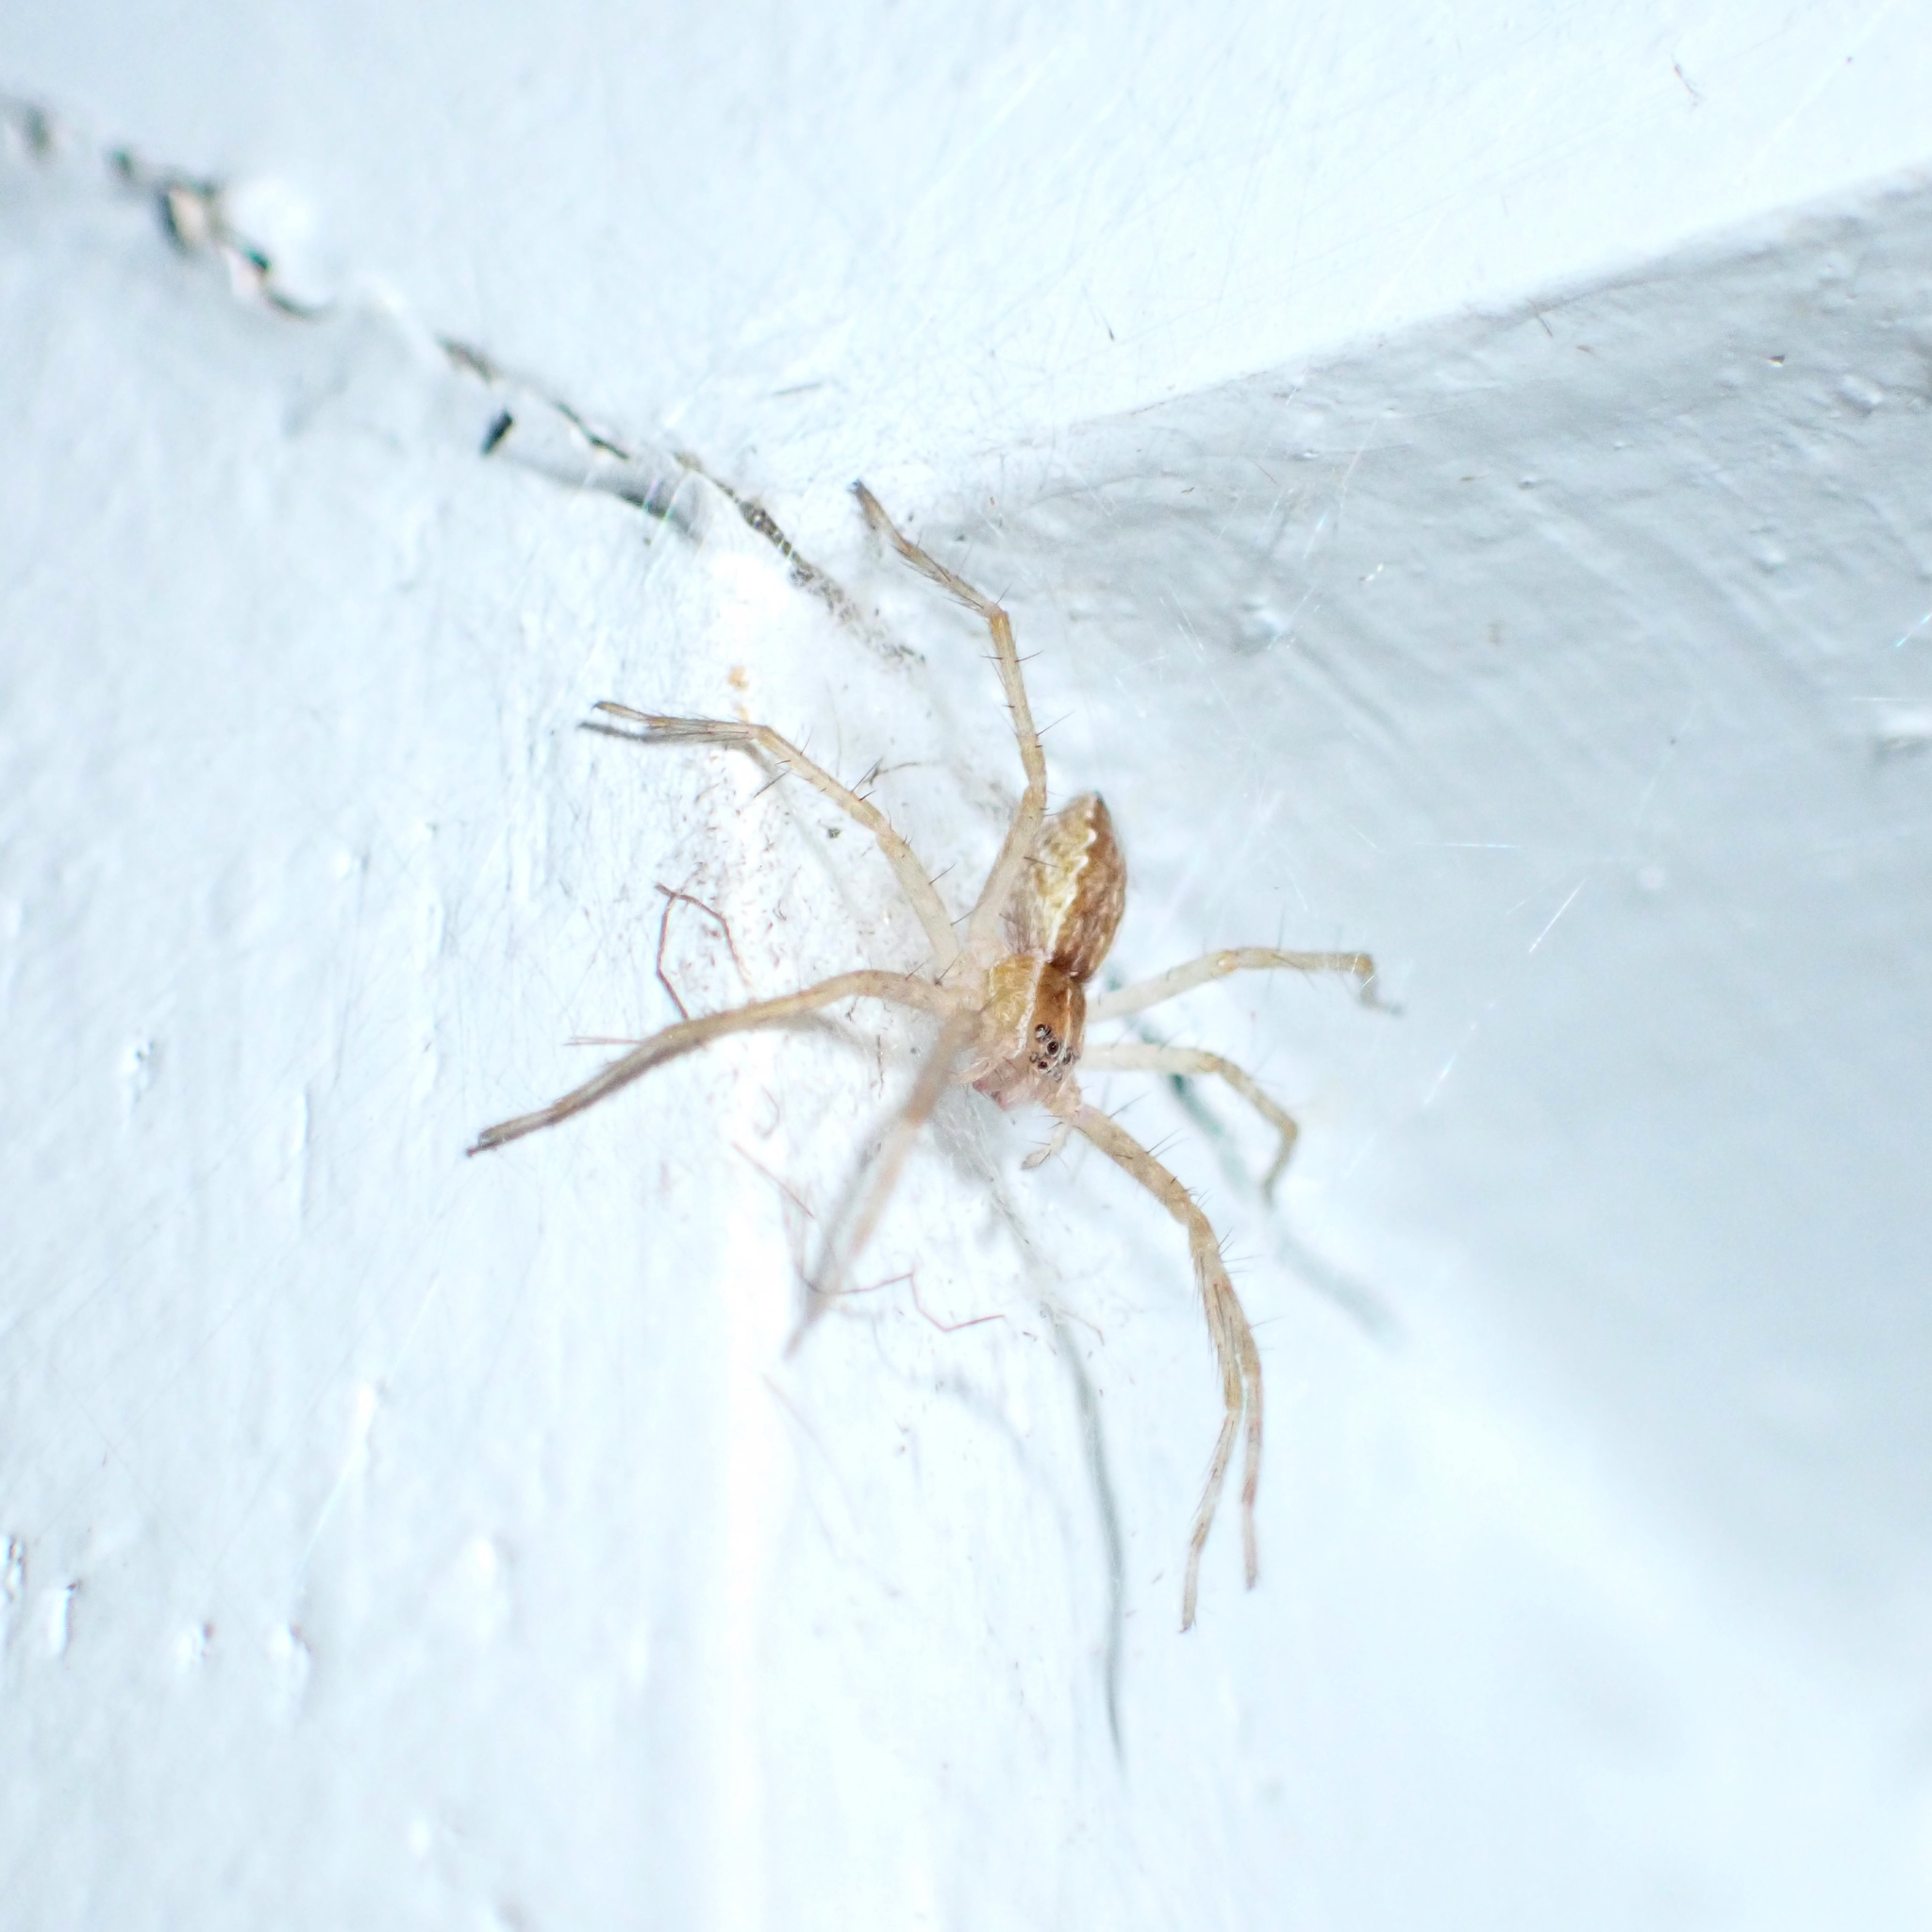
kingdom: Animalia
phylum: Arthropoda
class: Arachnida
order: Araneae
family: Pisauridae
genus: Pisaurina
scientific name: Pisaurina mira
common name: American nursery web spider
